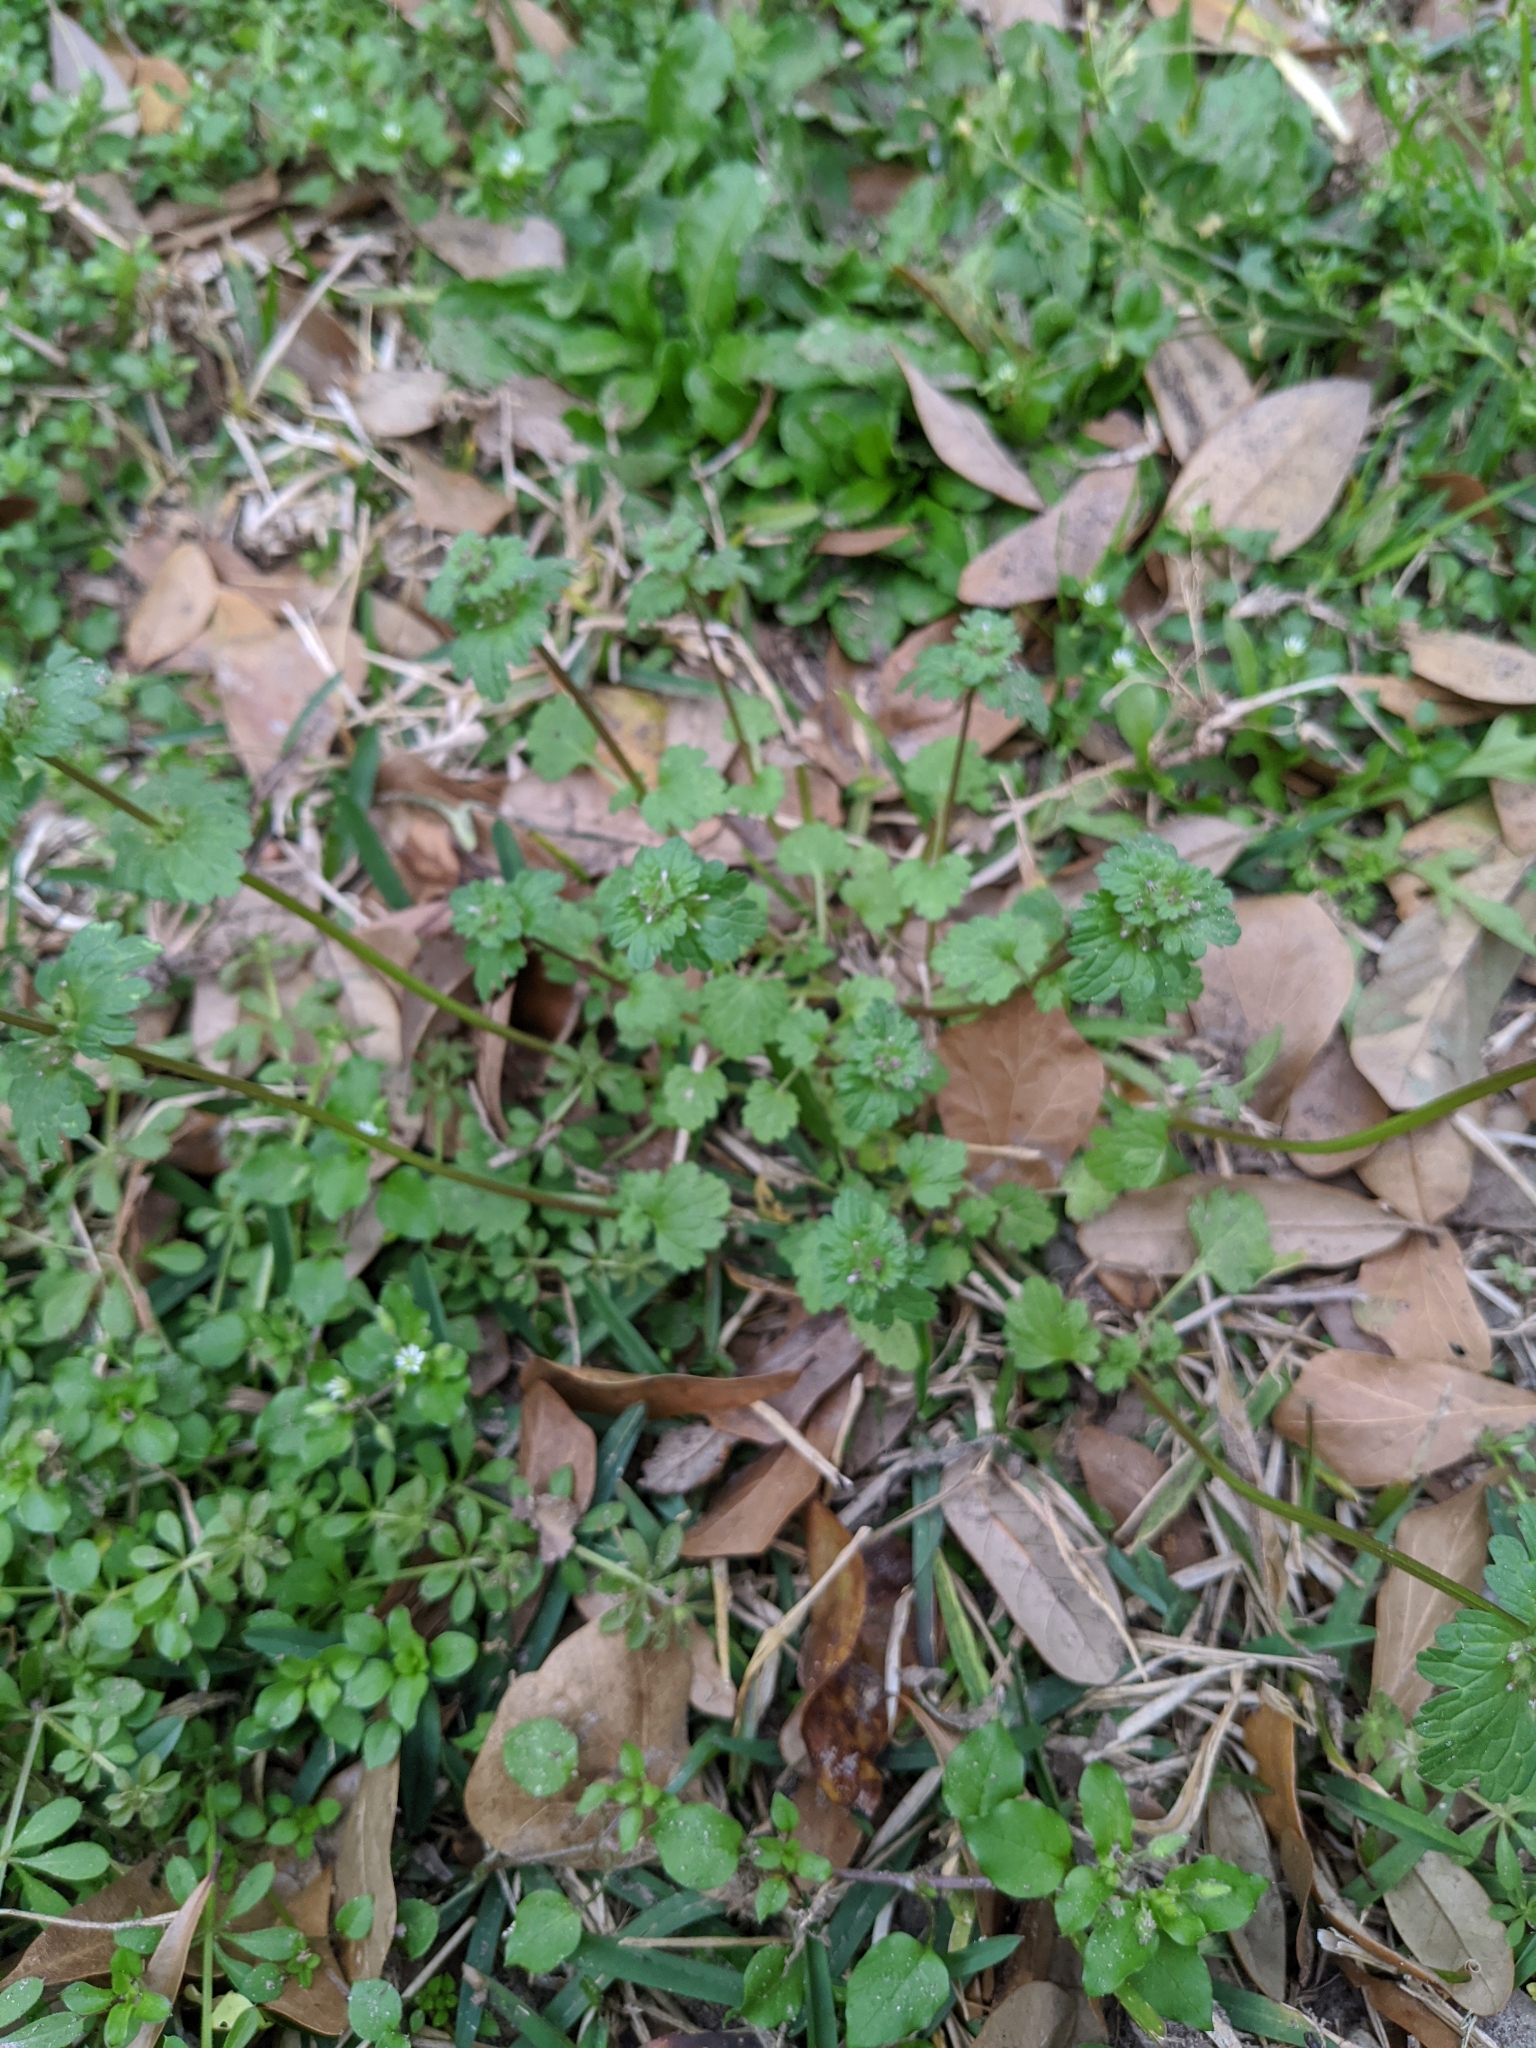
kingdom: Plantae
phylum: Tracheophyta
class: Magnoliopsida
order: Lamiales
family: Lamiaceae
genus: Lamium
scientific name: Lamium amplexicaule
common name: Henbit dead-nettle
